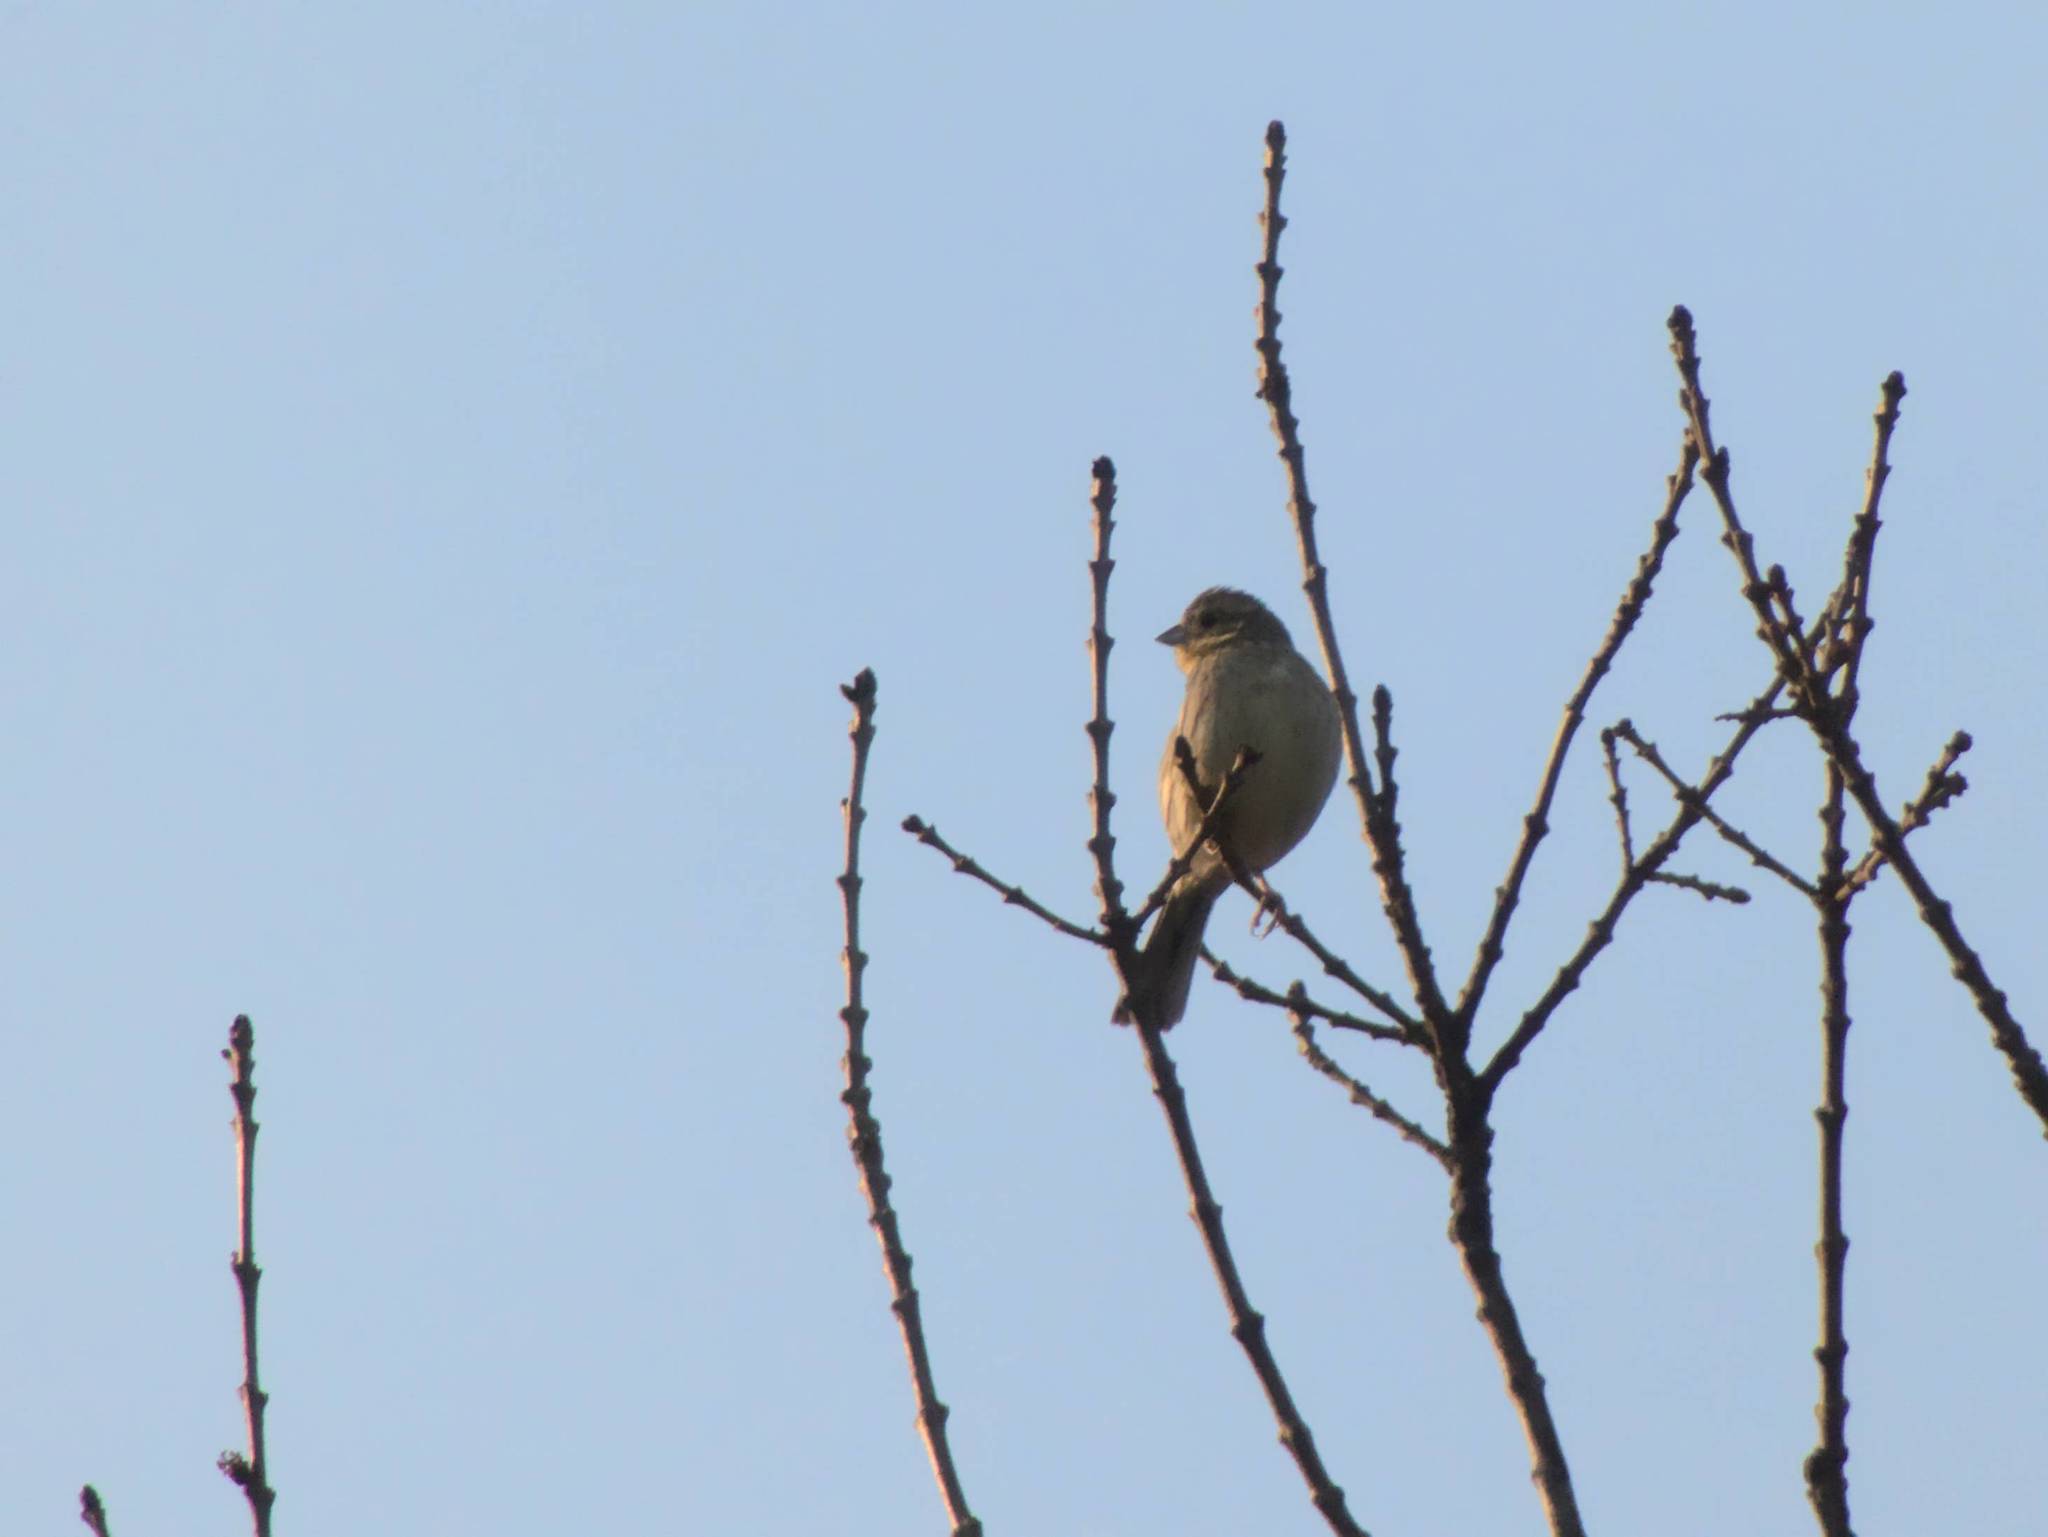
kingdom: Animalia
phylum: Chordata
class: Aves
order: Passeriformes
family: Emberizidae
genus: Emberiza
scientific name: Emberiza cirlus
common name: Cirl bunting
